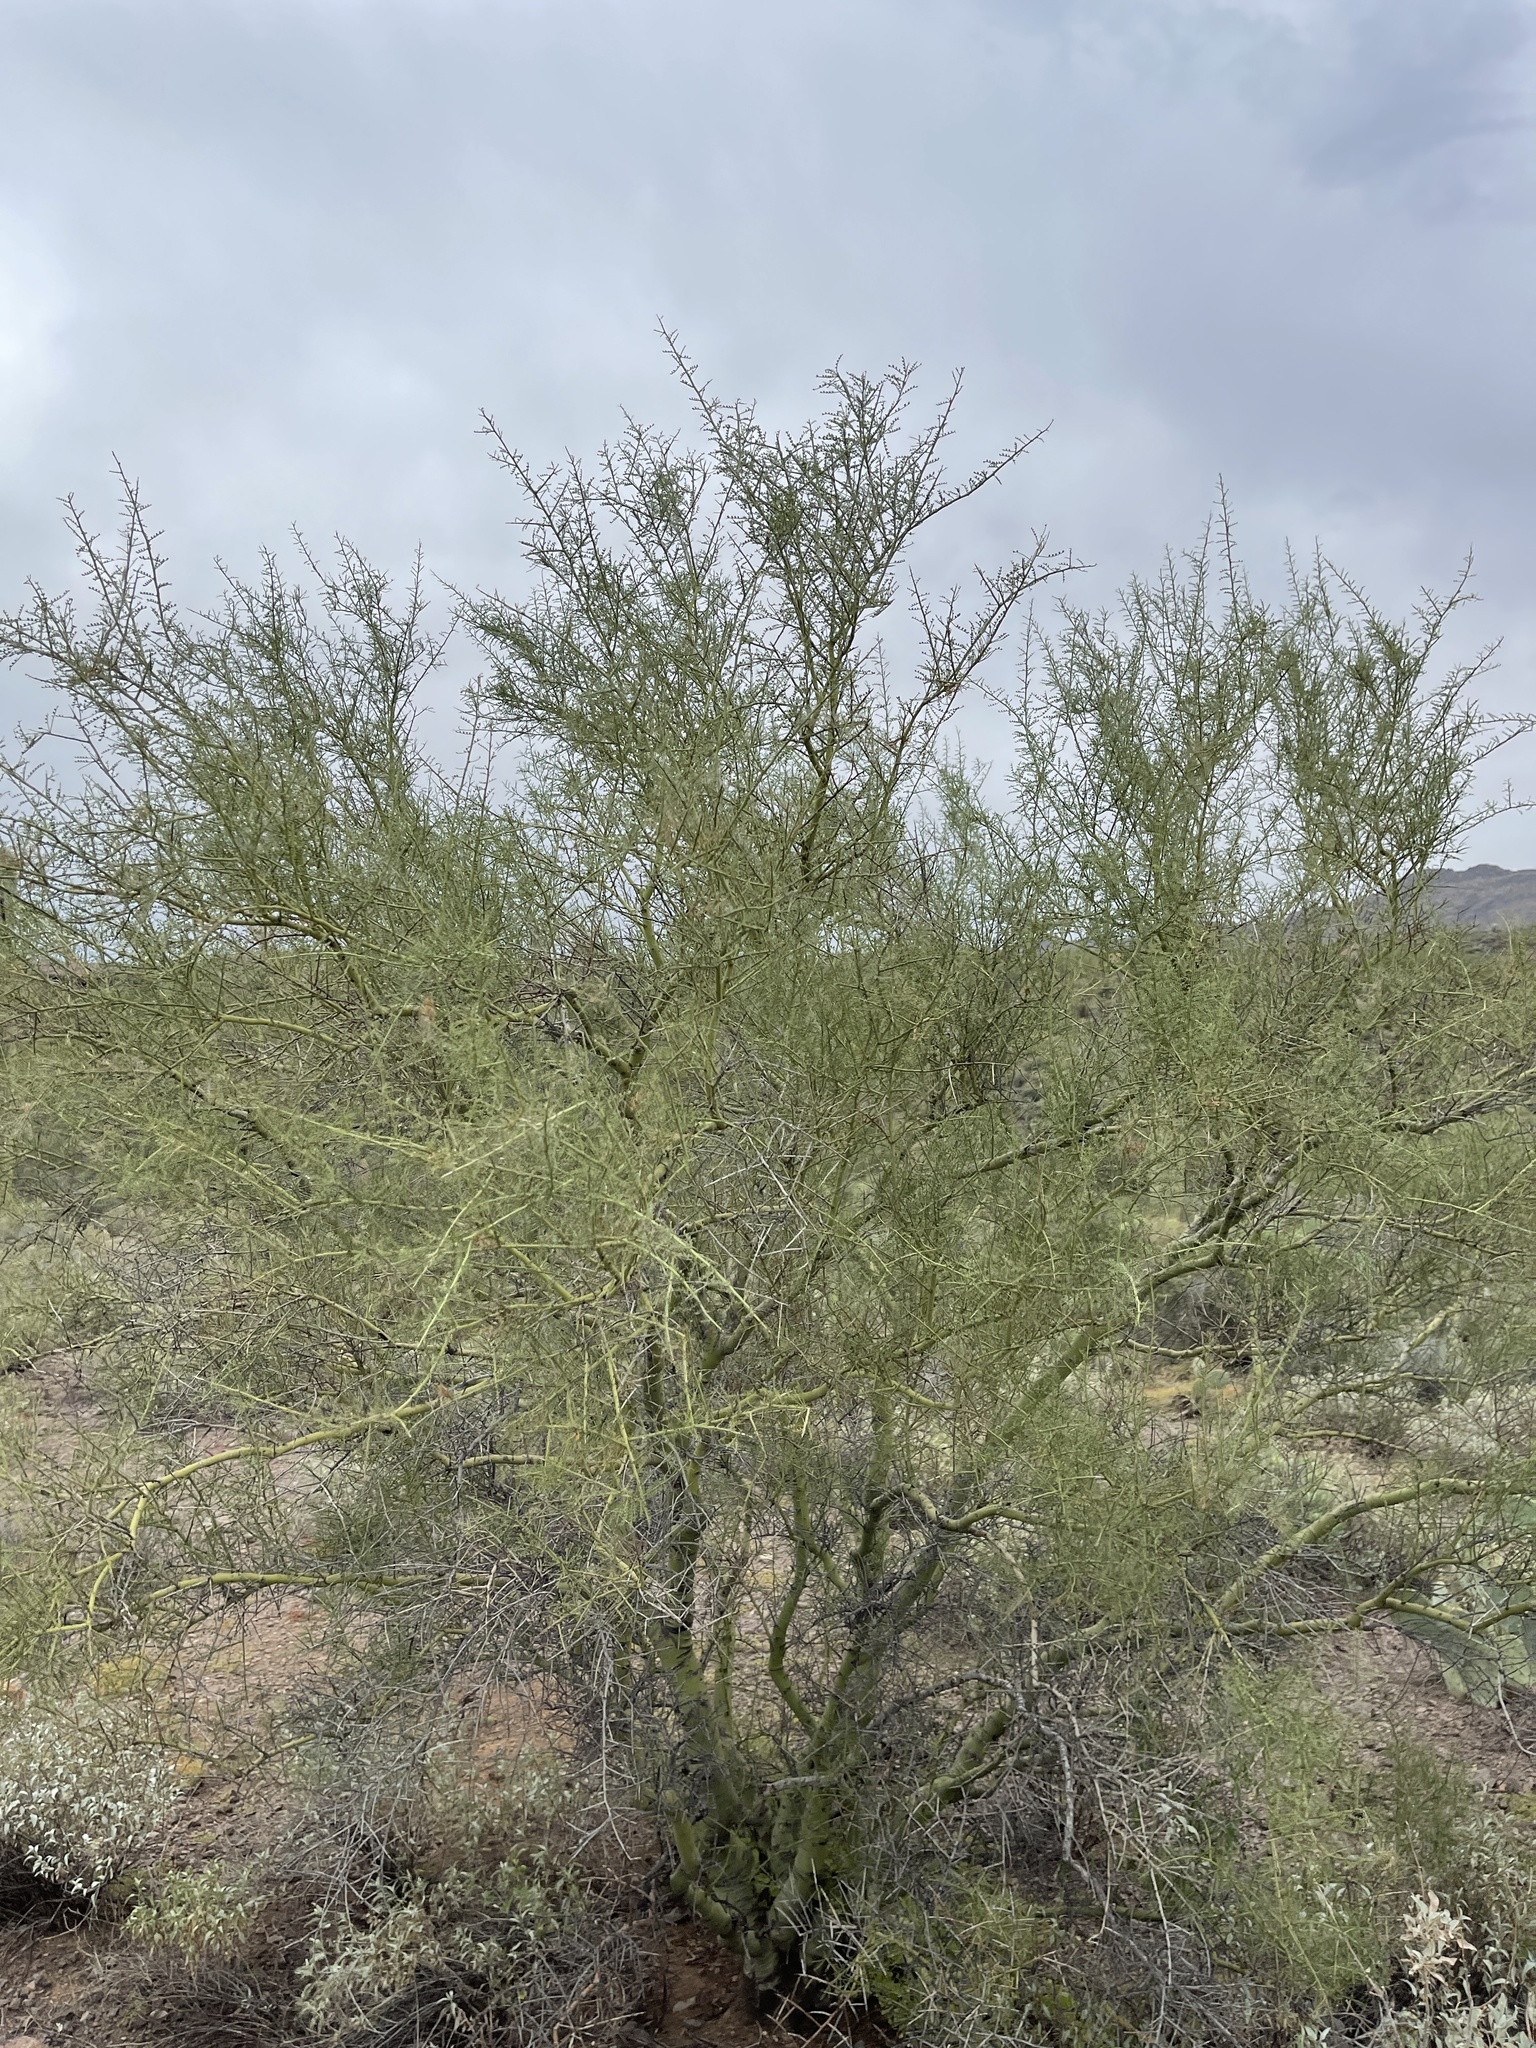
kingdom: Plantae
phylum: Tracheophyta
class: Magnoliopsida
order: Fabales
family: Fabaceae
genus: Parkinsonia
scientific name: Parkinsonia microphylla
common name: Yellow paloverde
